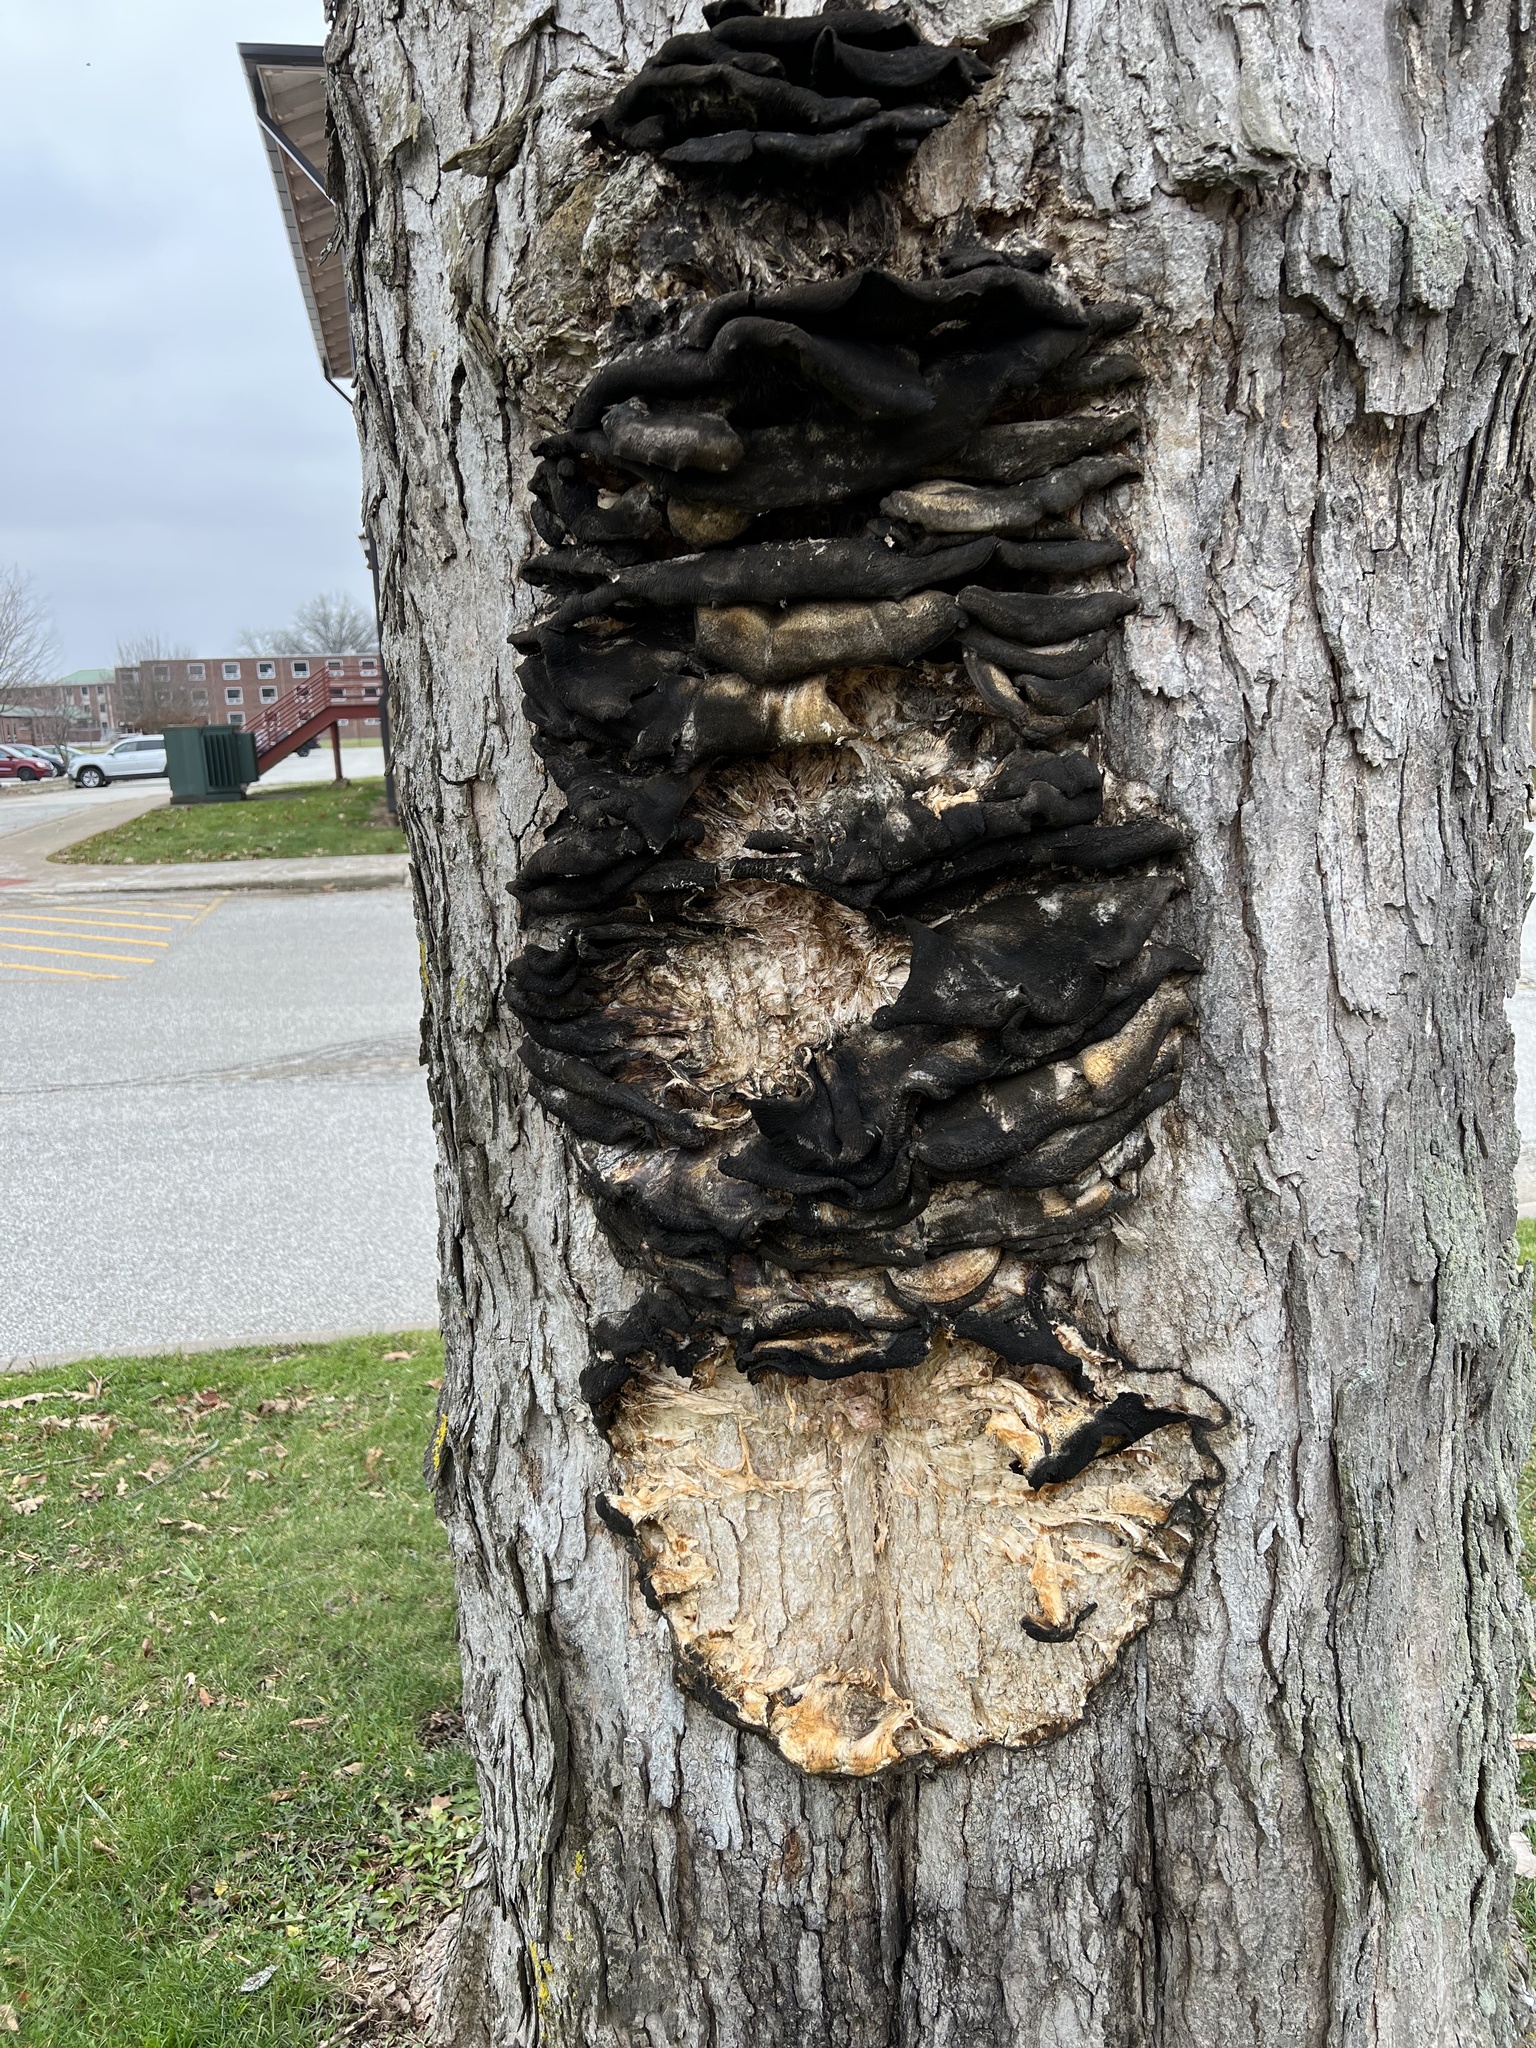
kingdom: Fungi
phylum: Basidiomycota
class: Agaricomycetes
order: Polyporales
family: Meruliaceae
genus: Climacodon
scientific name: Climacodon septentrionalis
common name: Northern tooth
